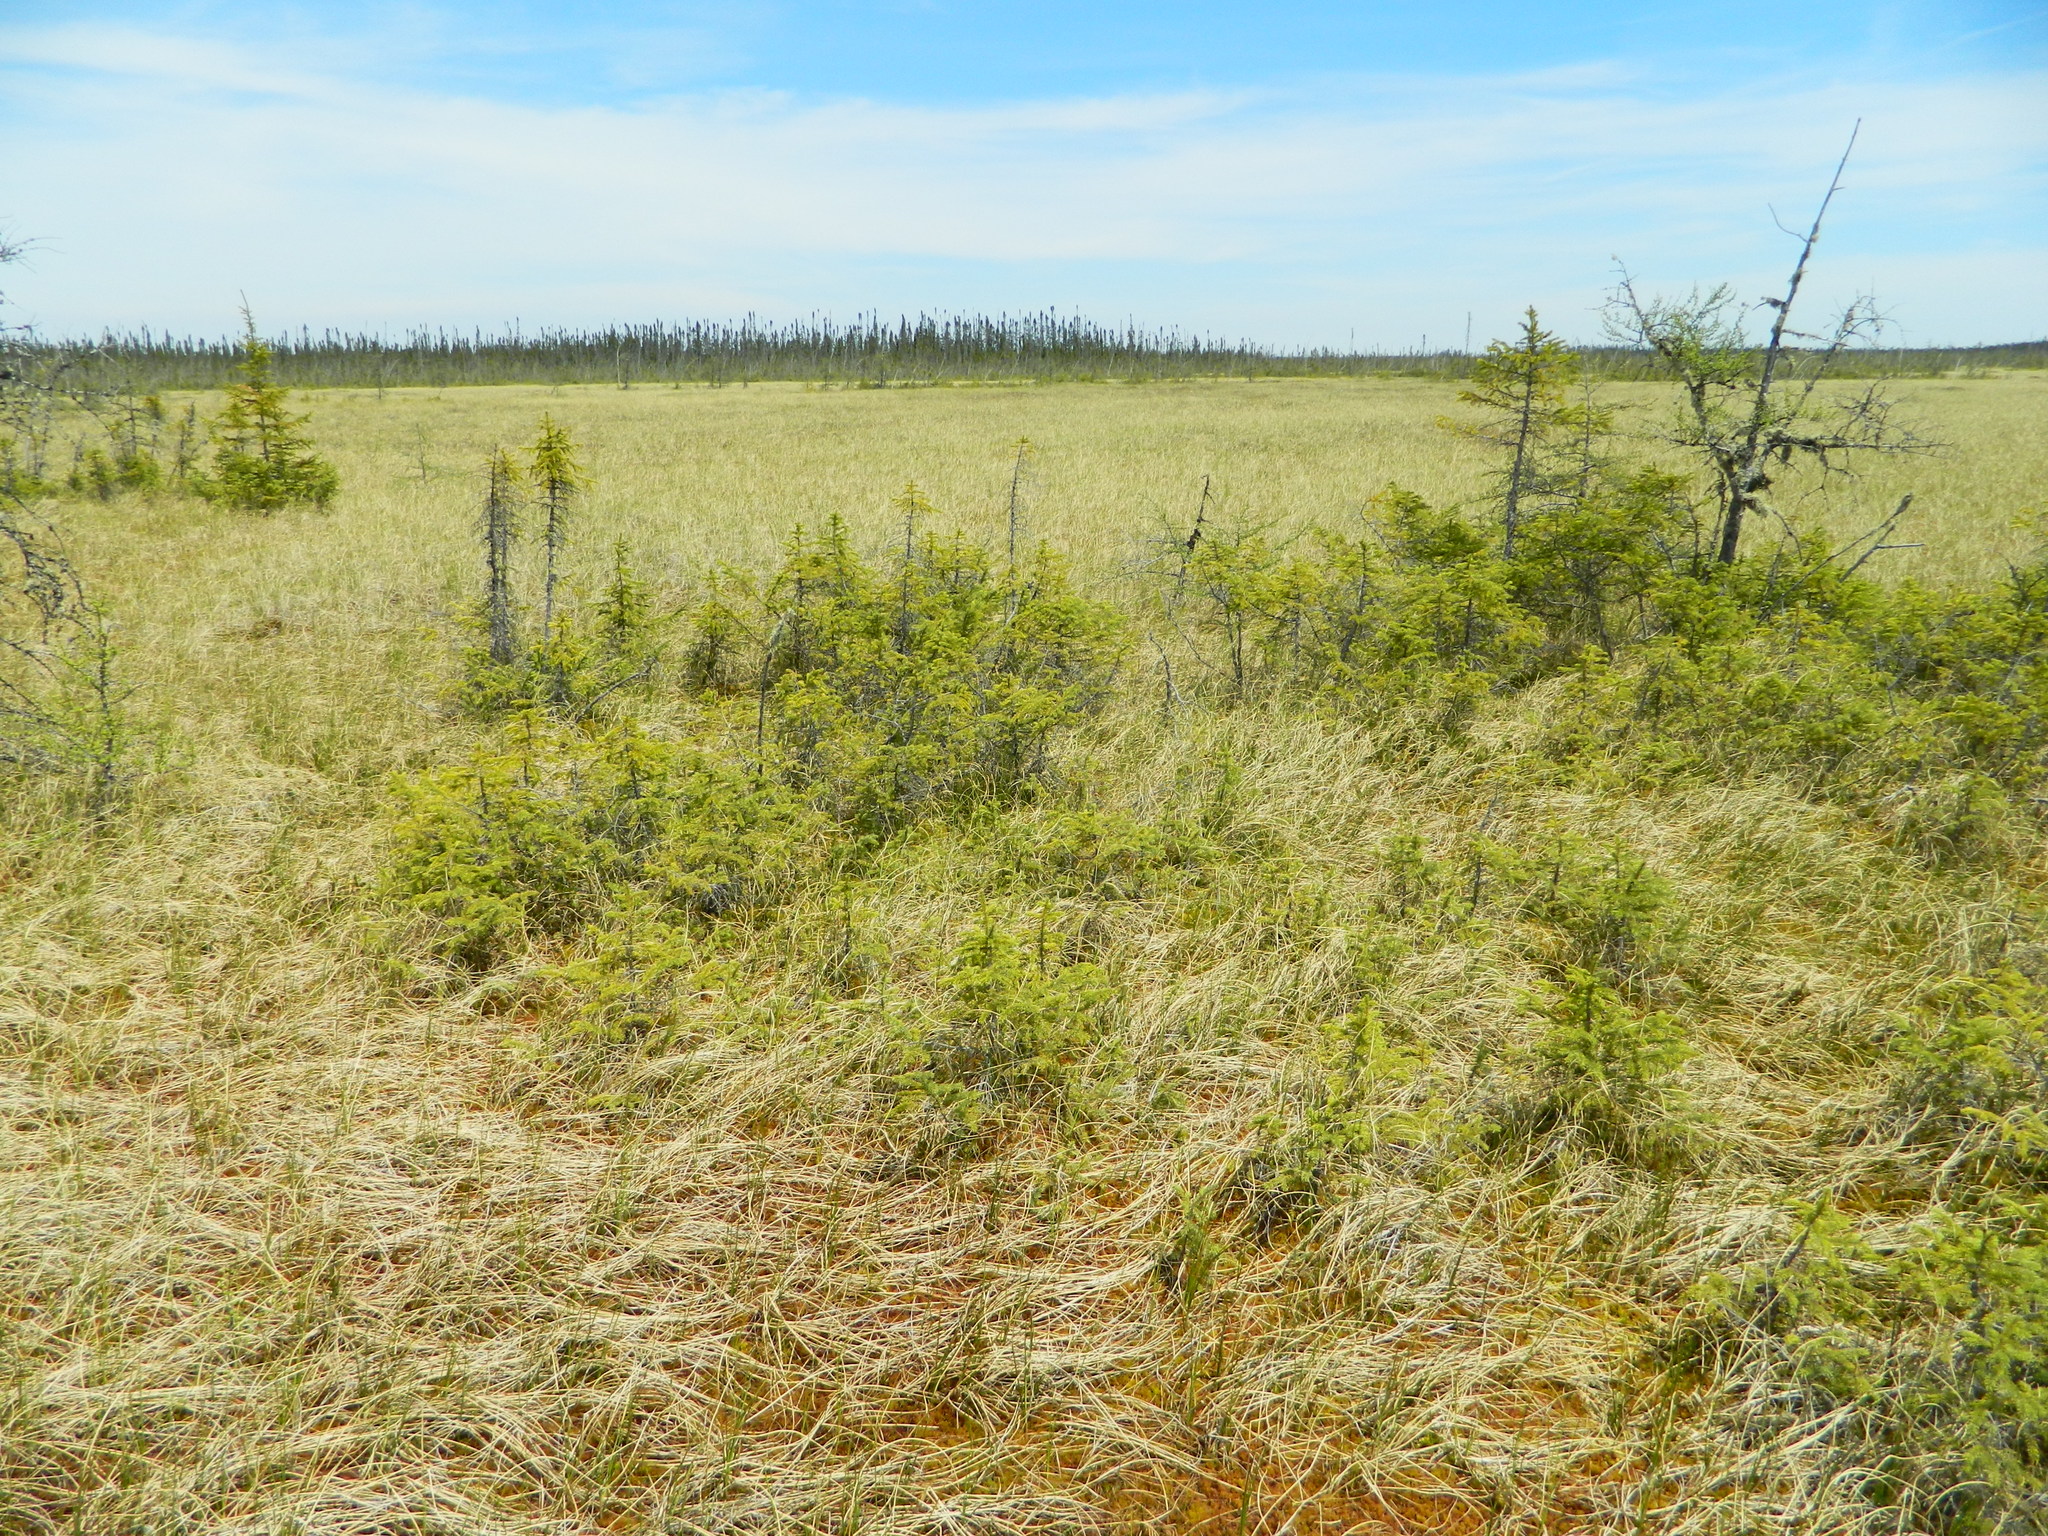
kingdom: Plantae
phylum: Tracheophyta
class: Pinopsida
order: Pinales
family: Pinaceae
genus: Picea
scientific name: Picea mariana
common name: Black spruce
